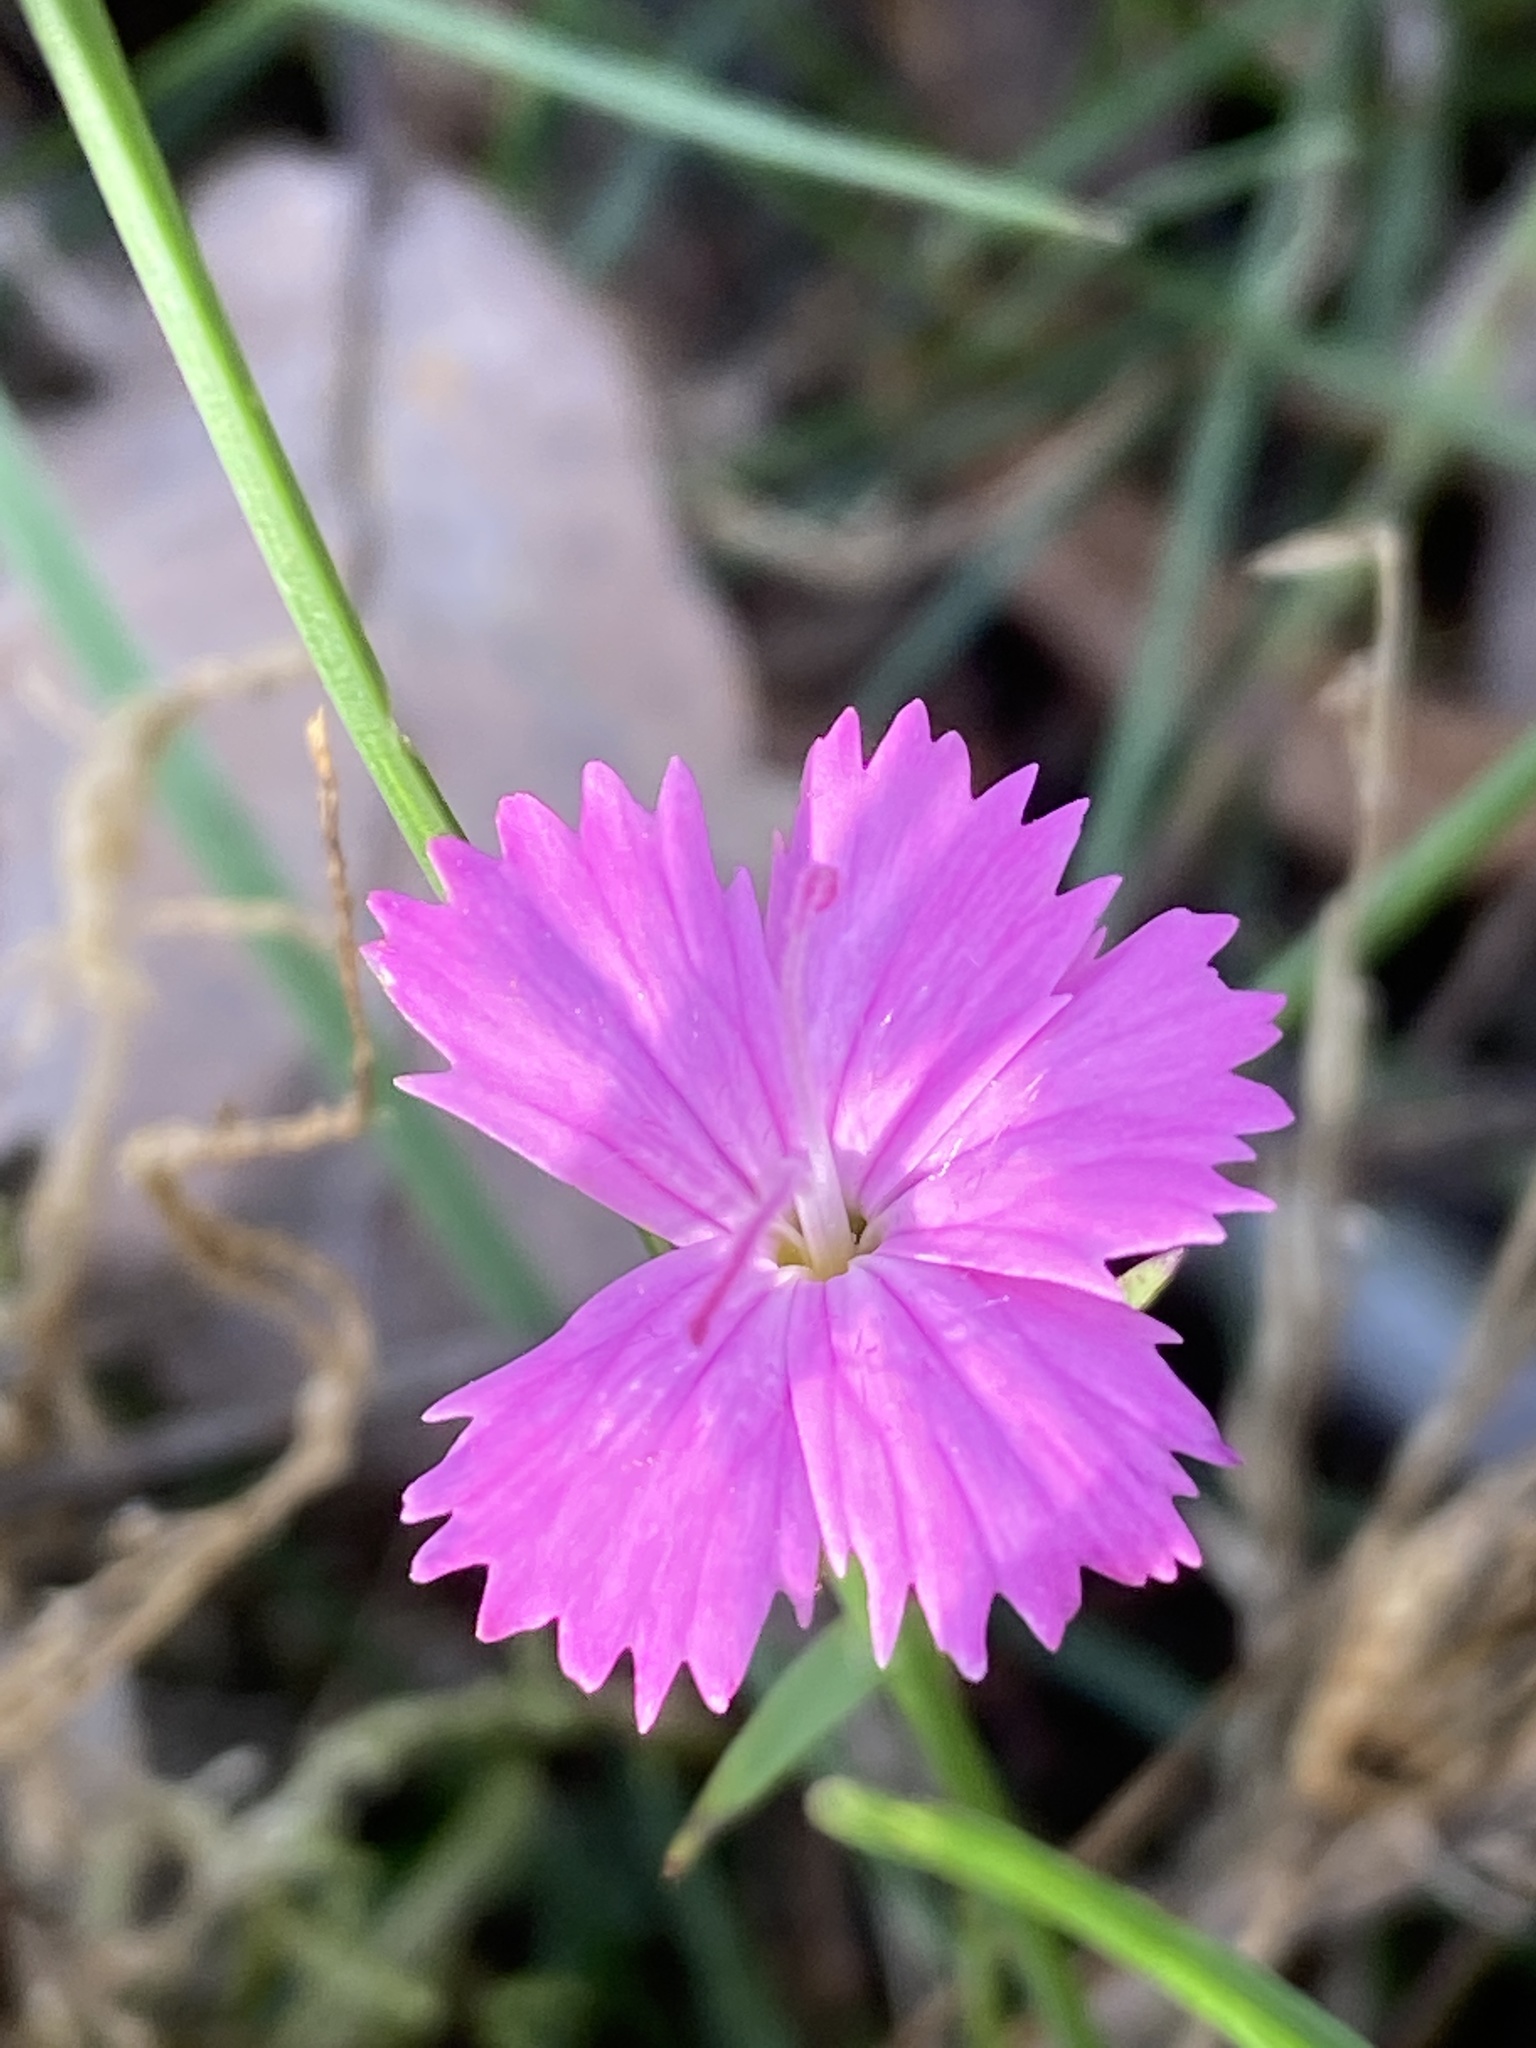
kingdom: Plantae
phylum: Tracheophyta
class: Magnoliopsida
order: Caryophyllales
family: Caryophyllaceae
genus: Dianthus
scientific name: Dianthus carthusianorum
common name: Carthusian pink
